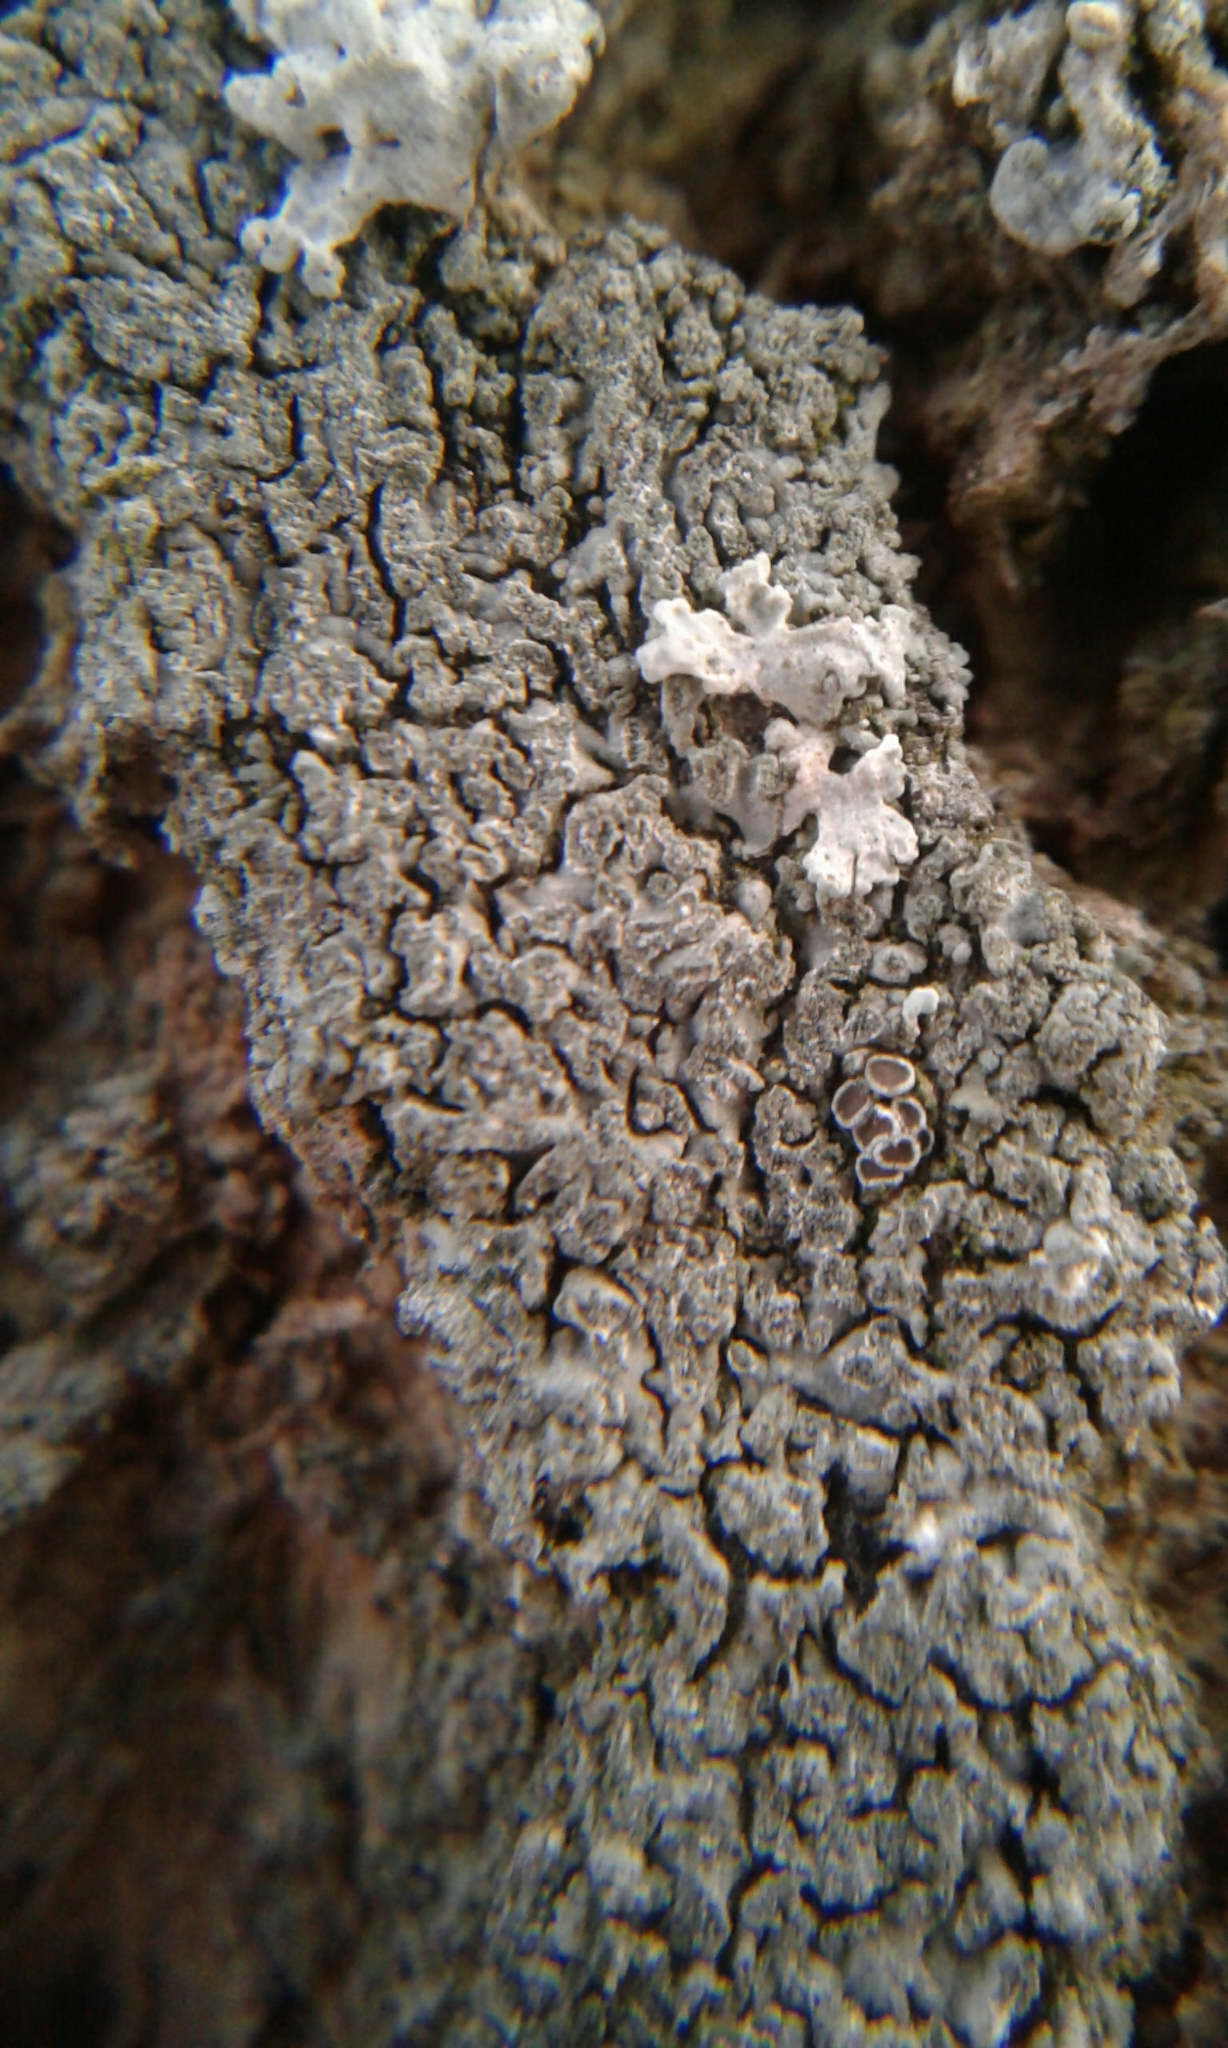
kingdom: Fungi
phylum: Ascomycota
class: Lecanoromycetes
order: Caliciales
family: Physciaceae
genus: Hyperphyscia
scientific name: Hyperphyscia adglutinata
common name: Grainy shadow-crust lichen
